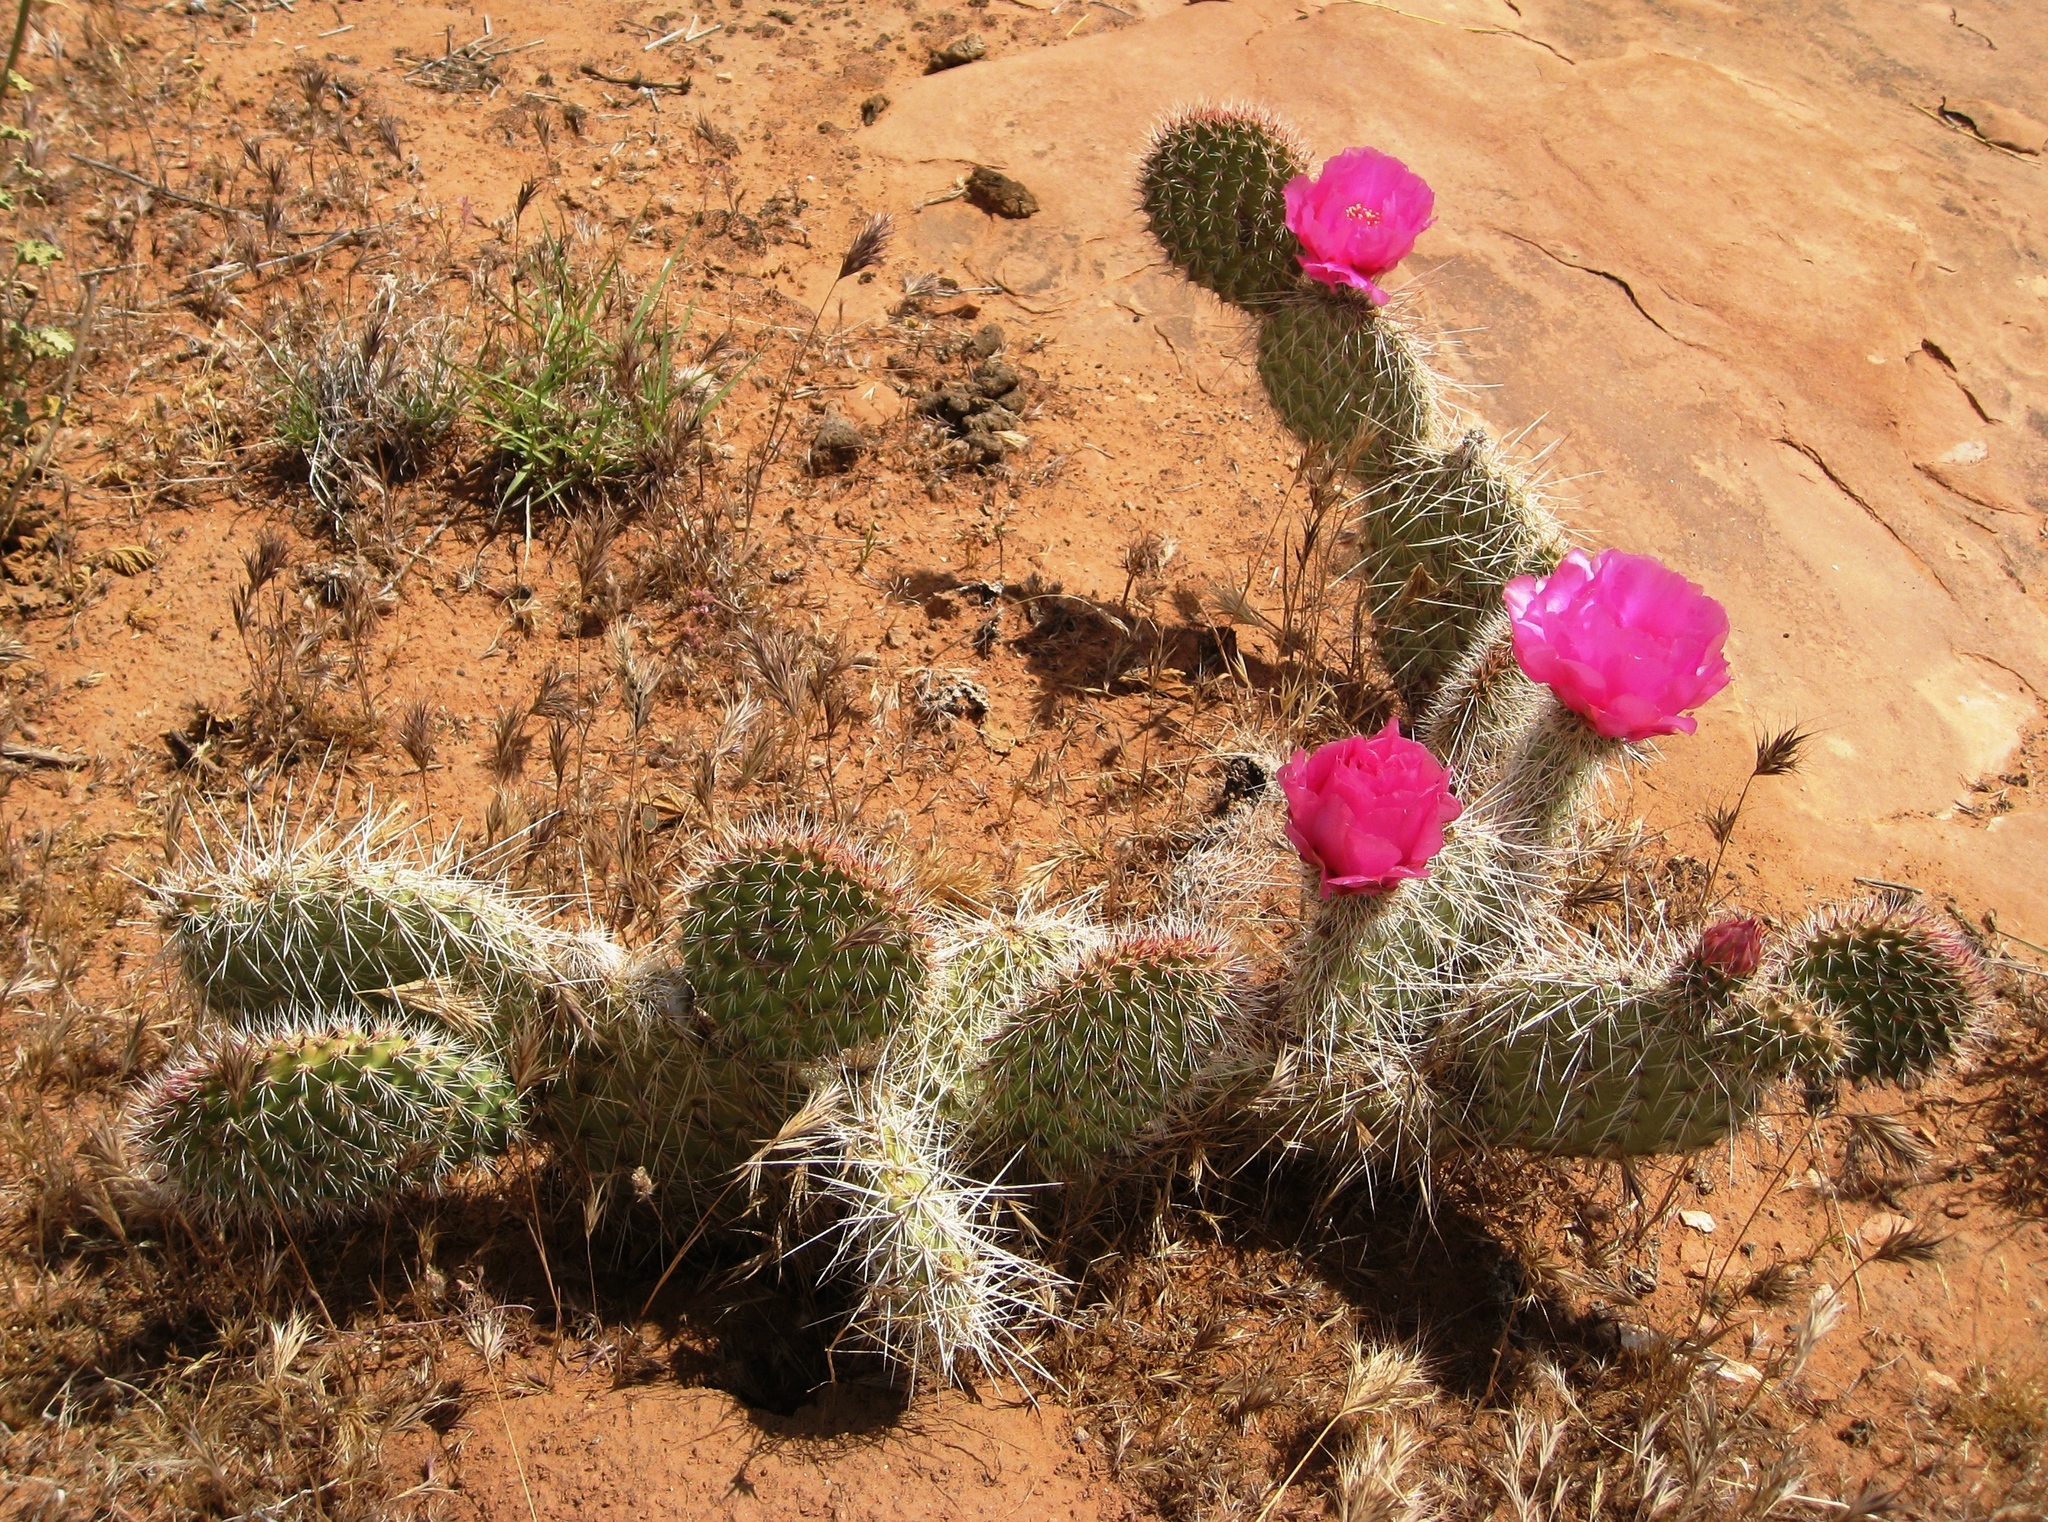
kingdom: Plantae
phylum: Tracheophyta
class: Magnoliopsida
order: Caryophyllales
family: Cactaceae
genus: Opuntia
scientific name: Opuntia polyacantha
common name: Plains prickly-pear
